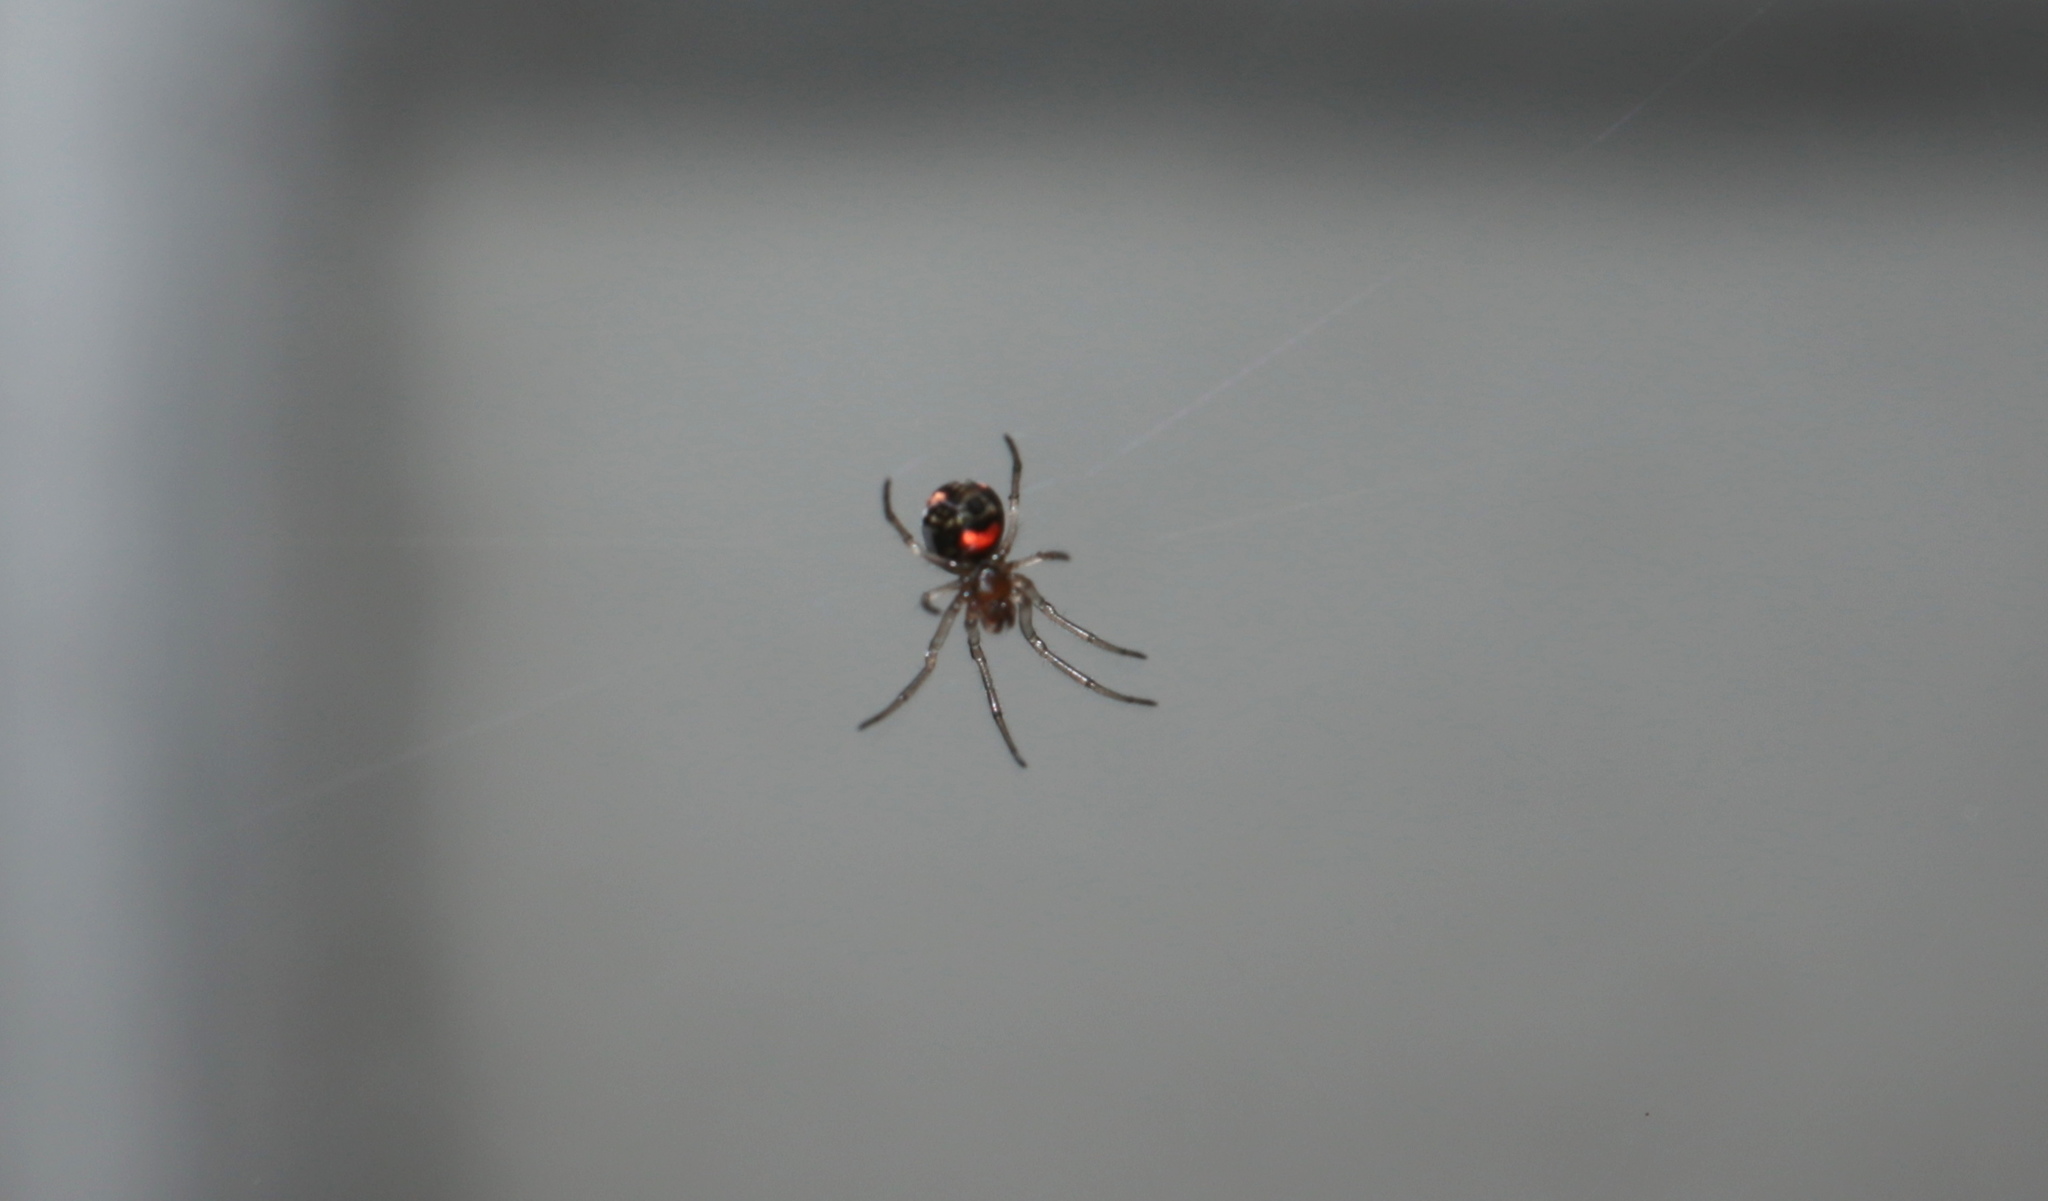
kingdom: Animalia
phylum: Arthropoda
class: Arachnida
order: Araneae
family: Tetragnathidae
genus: Leucauge
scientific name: Leucauge venusta
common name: Longjawed orb weavers
